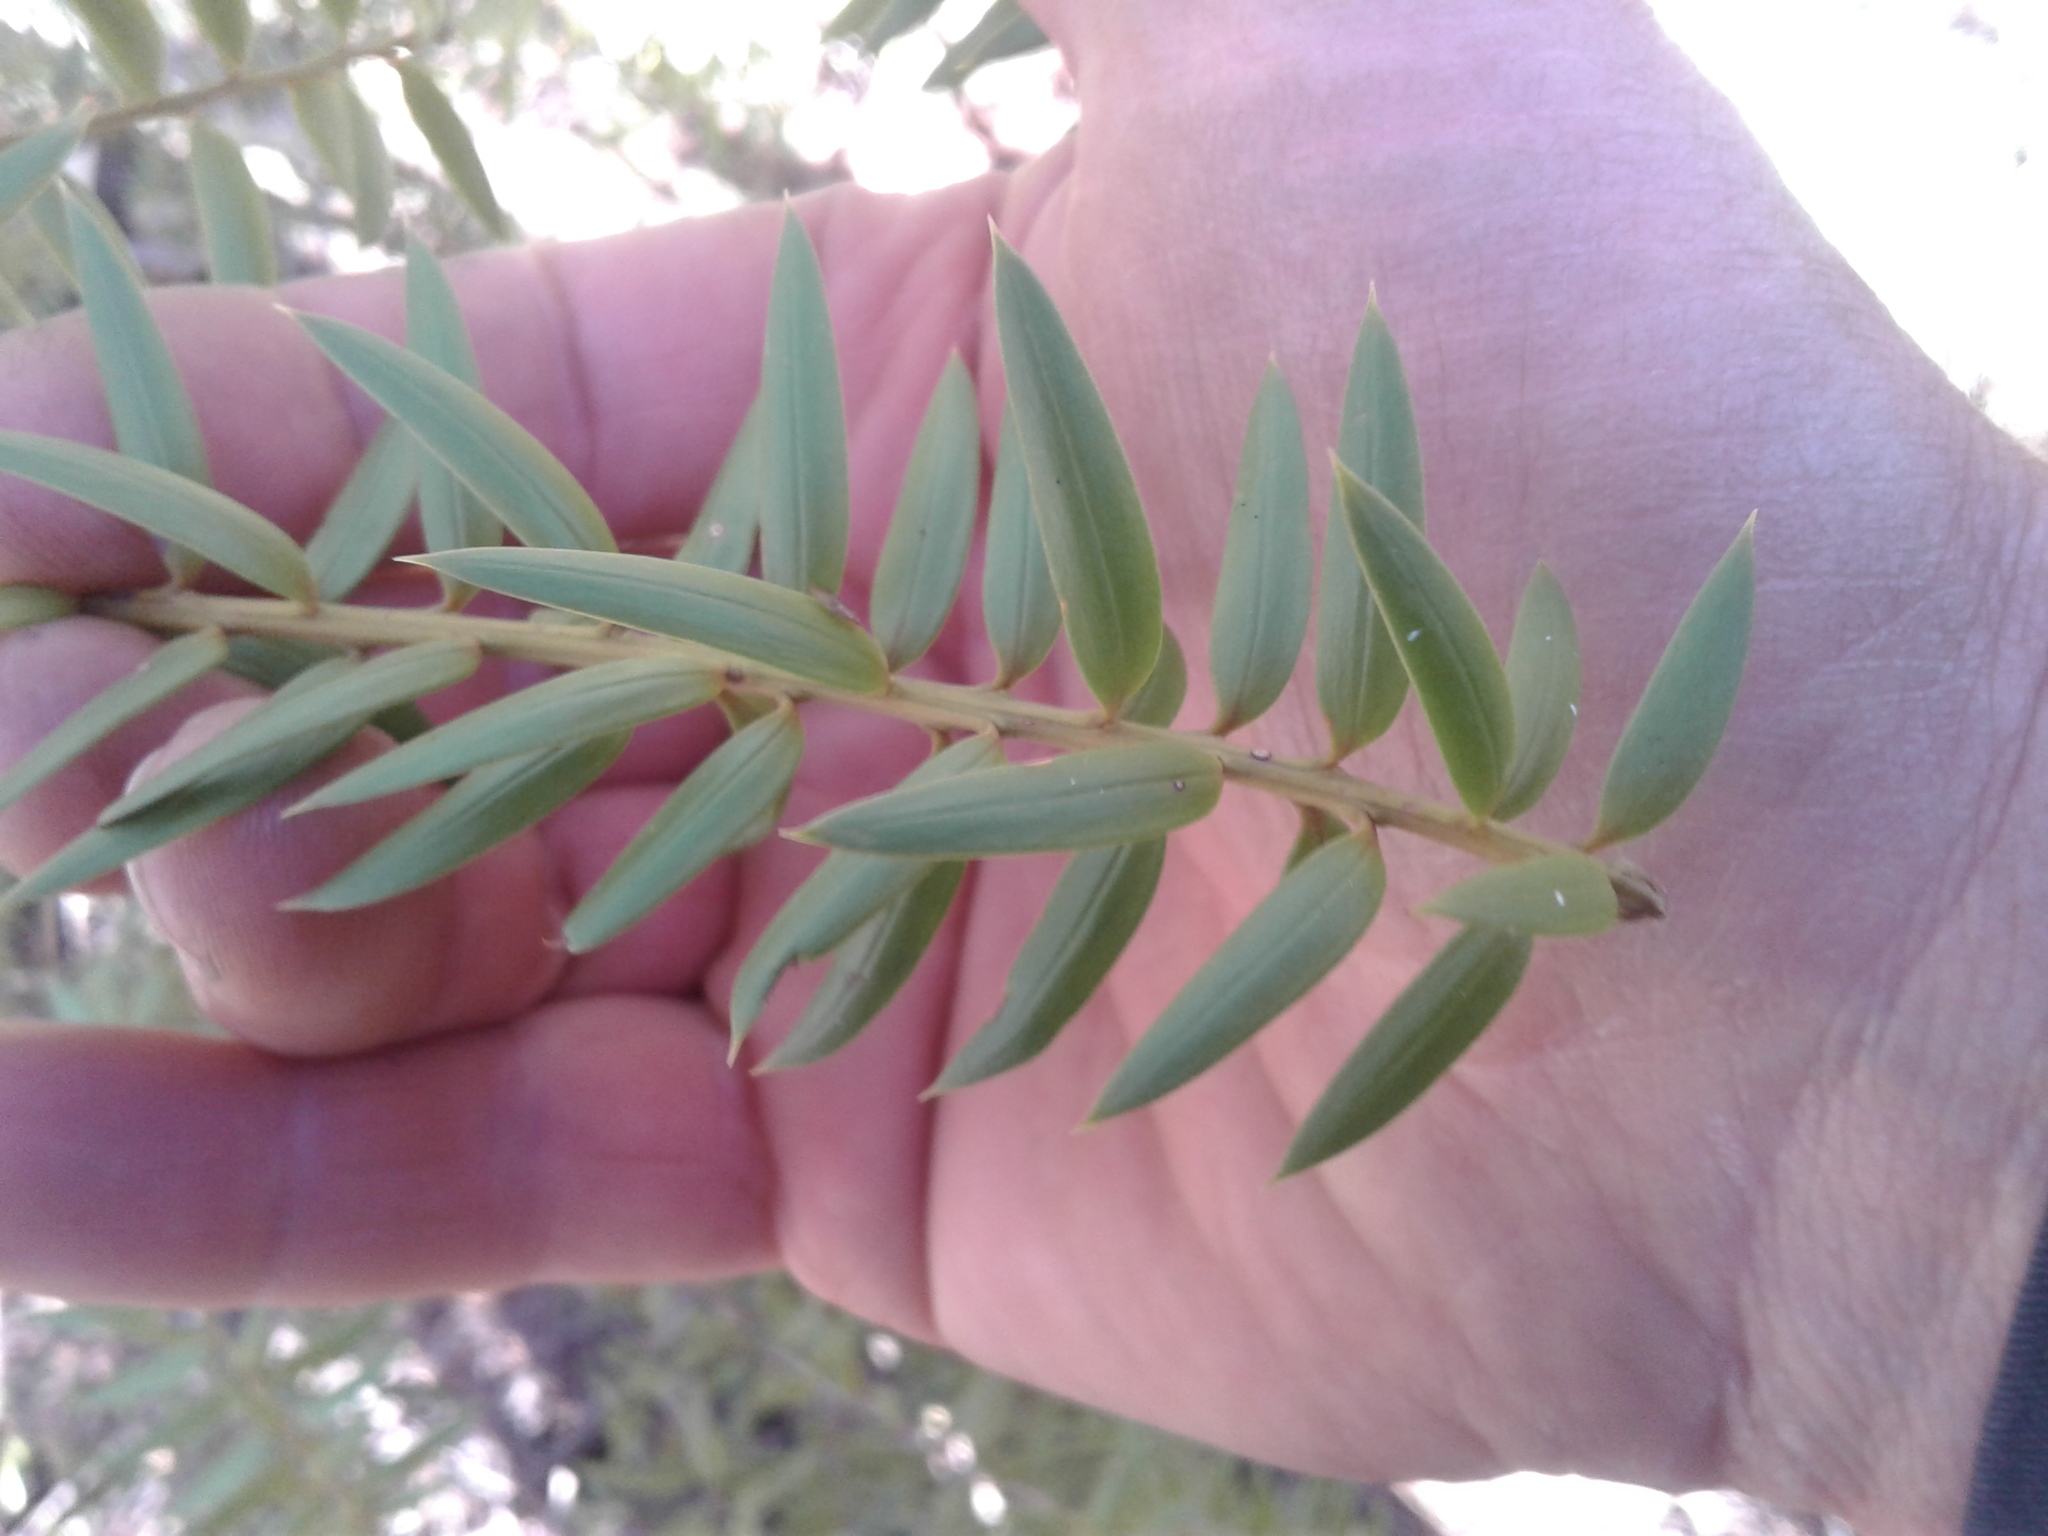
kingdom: Plantae
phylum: Tracheophyta
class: Pinopsida
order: Pinales
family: Podocarpaceae
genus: Podocarpus
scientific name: Podocarpus laetus
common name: Hall's totara
